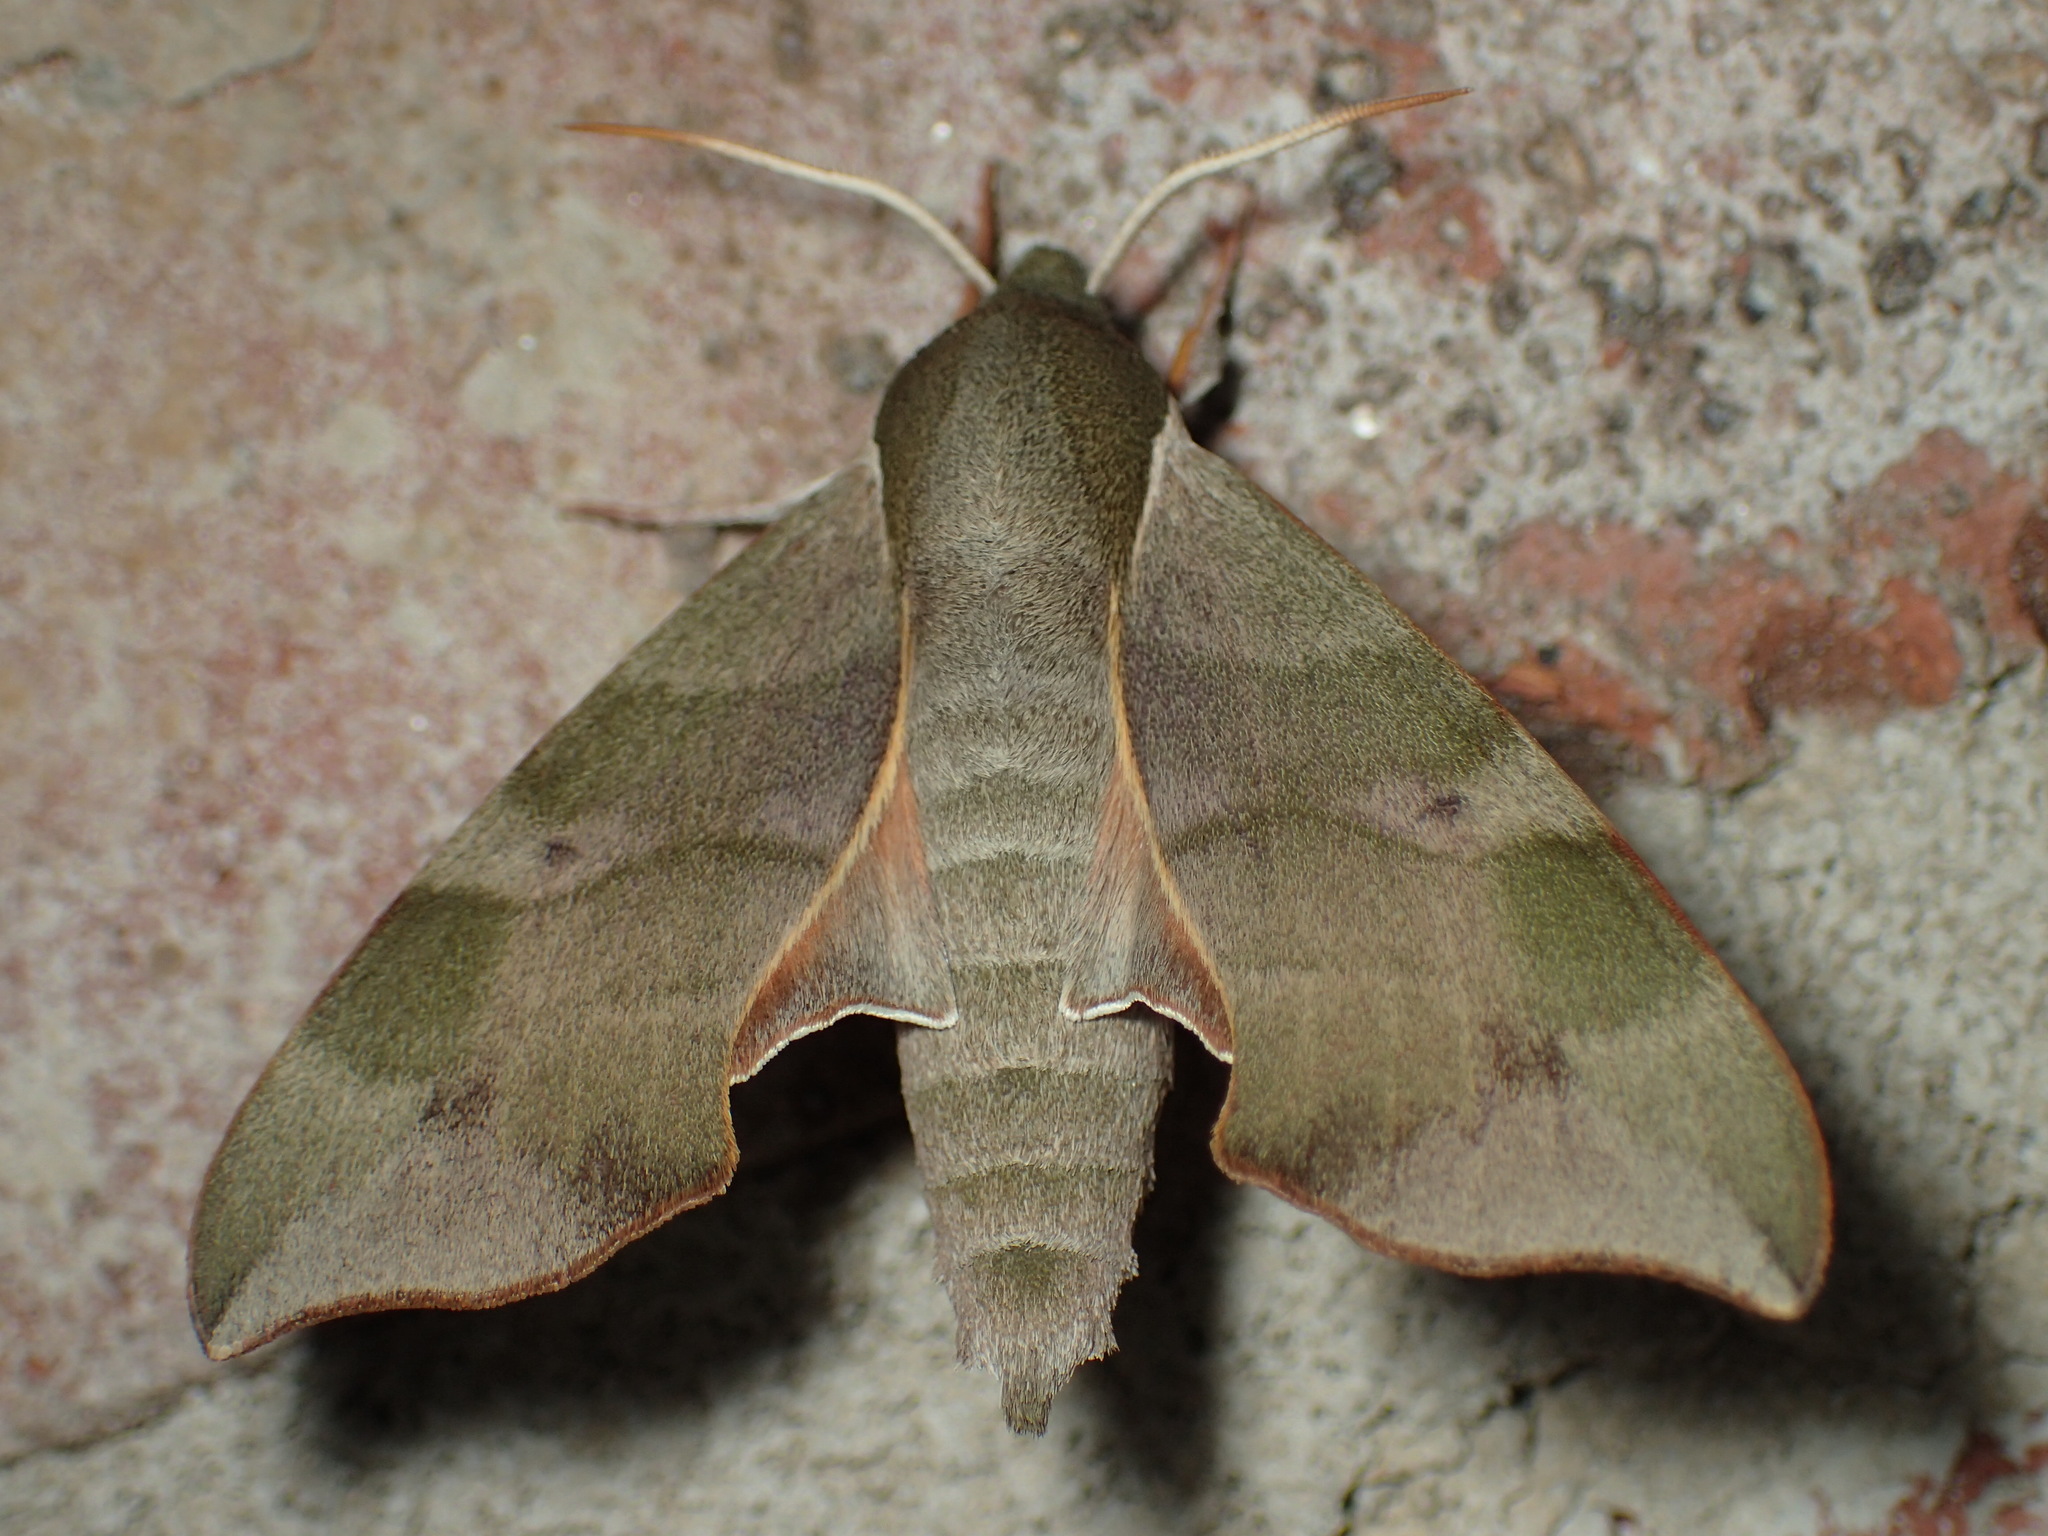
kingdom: Animalia
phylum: Arthropoda
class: Insecta
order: Lepidoptera
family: Sphingidae
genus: Darapsa
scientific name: Darapsa myron
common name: Hog sphinx
